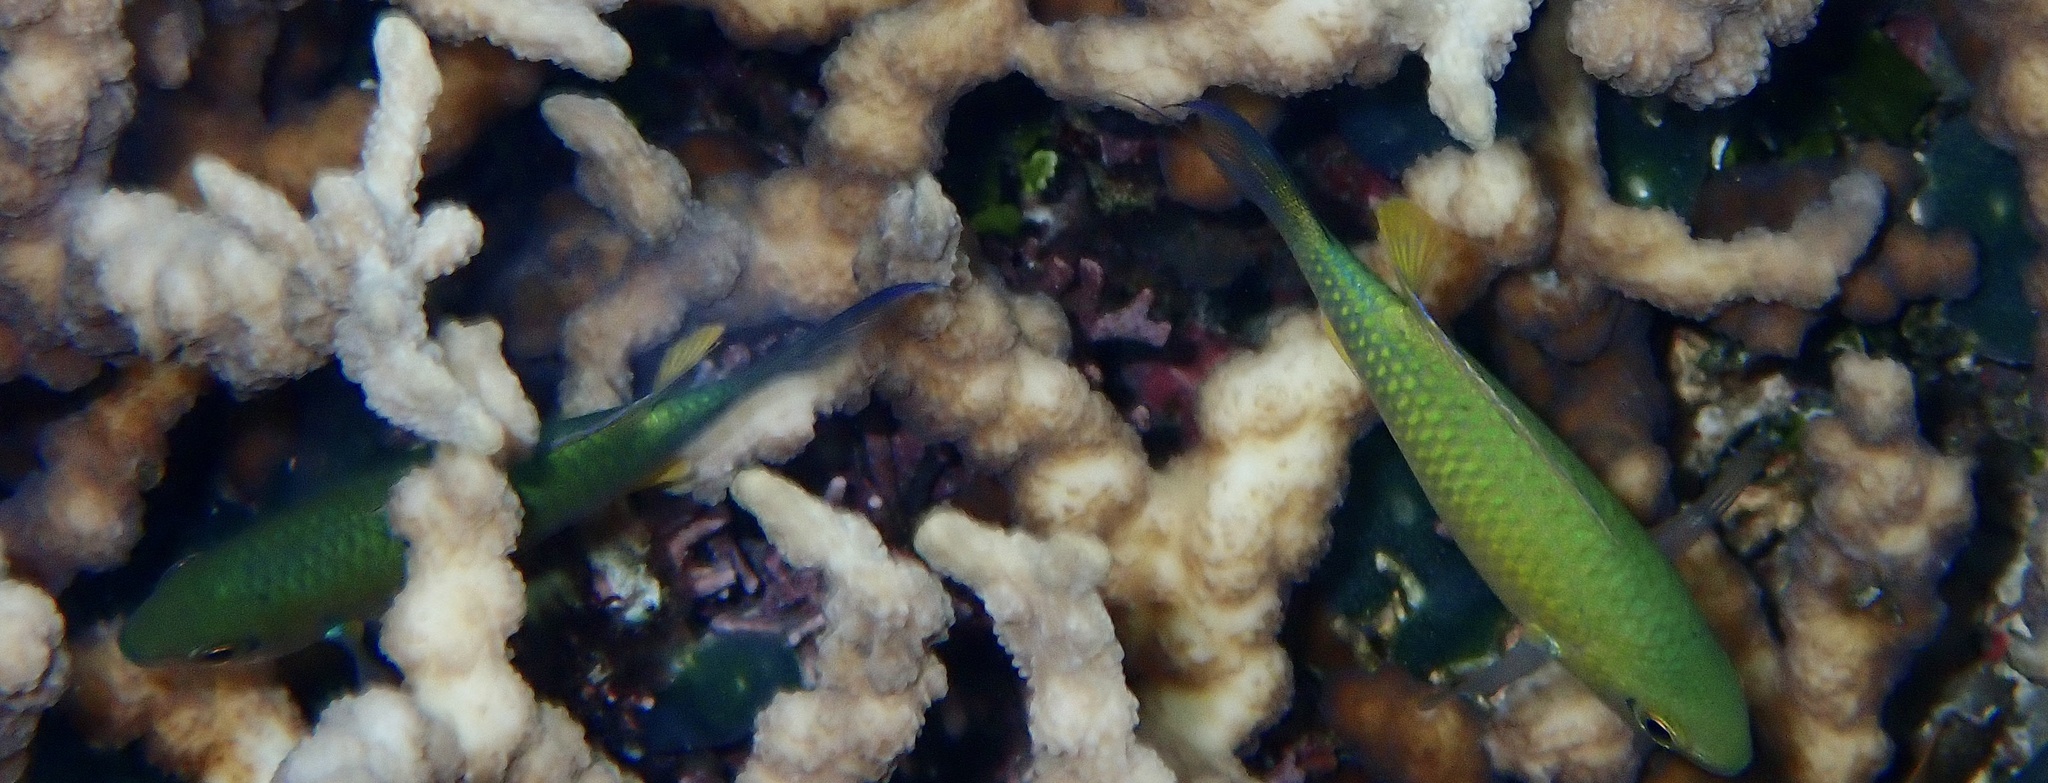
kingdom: Animalia
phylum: Chordata
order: Perciformes
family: Pomacentridae
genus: Chromis
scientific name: Chromis viridis
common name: Blue-green chromis
